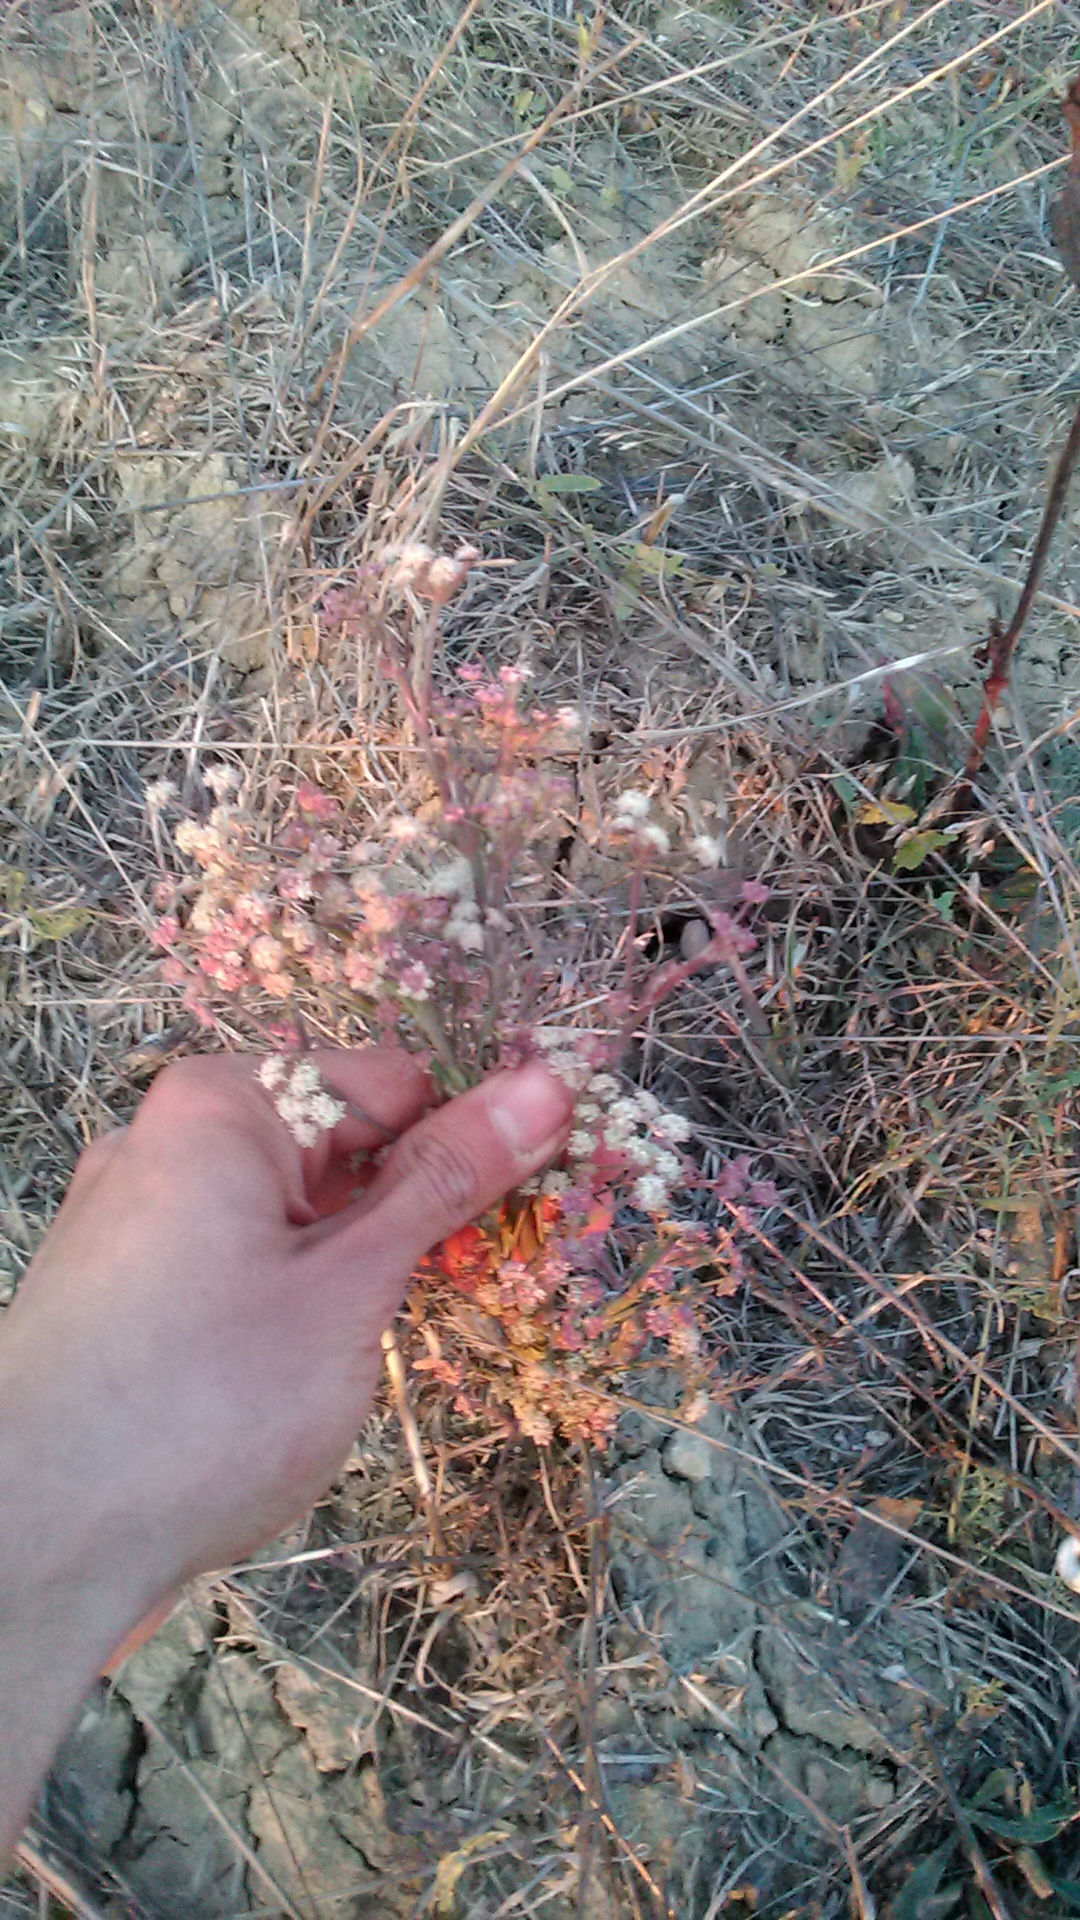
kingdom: Plantae
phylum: Tracheophyta
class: Magnoliopsida
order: Apiales
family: Apiaceae
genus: Seseli
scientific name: Seseli dichotomum
